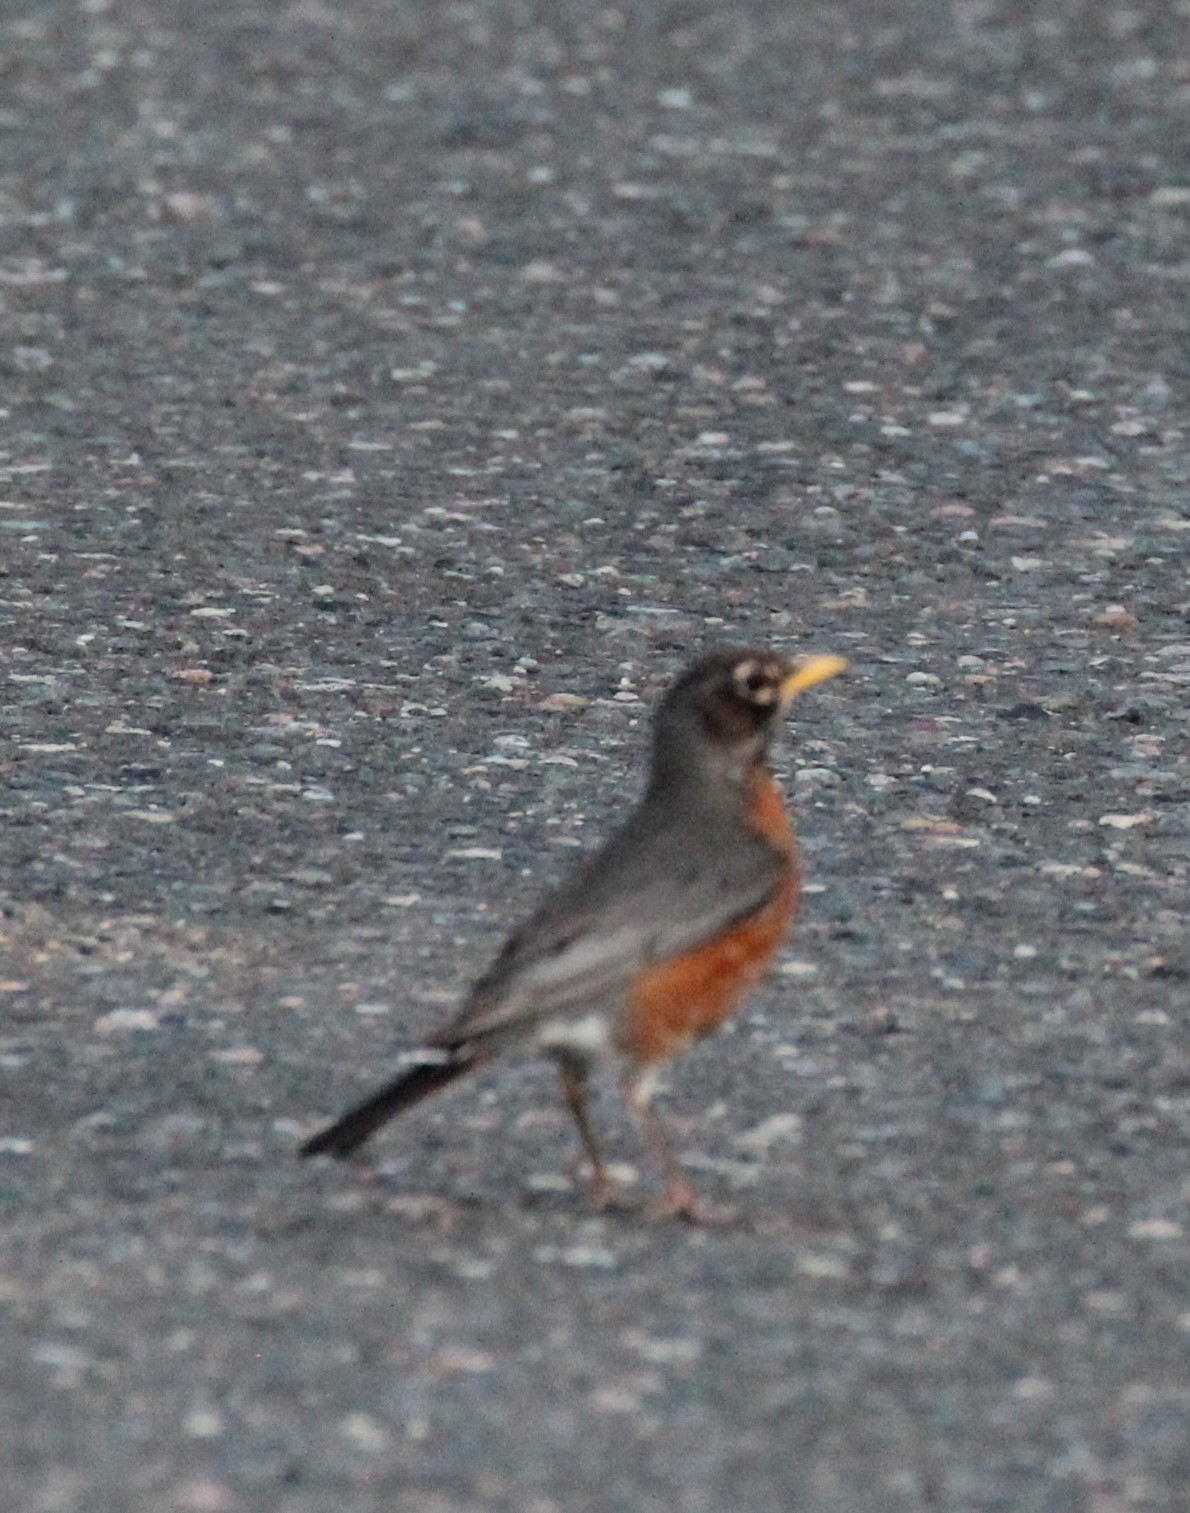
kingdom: Animalia
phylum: Chordata
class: Aves
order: Passeriformes
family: Turdidae
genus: Turdus
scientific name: Turdus migratorius
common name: American robin
